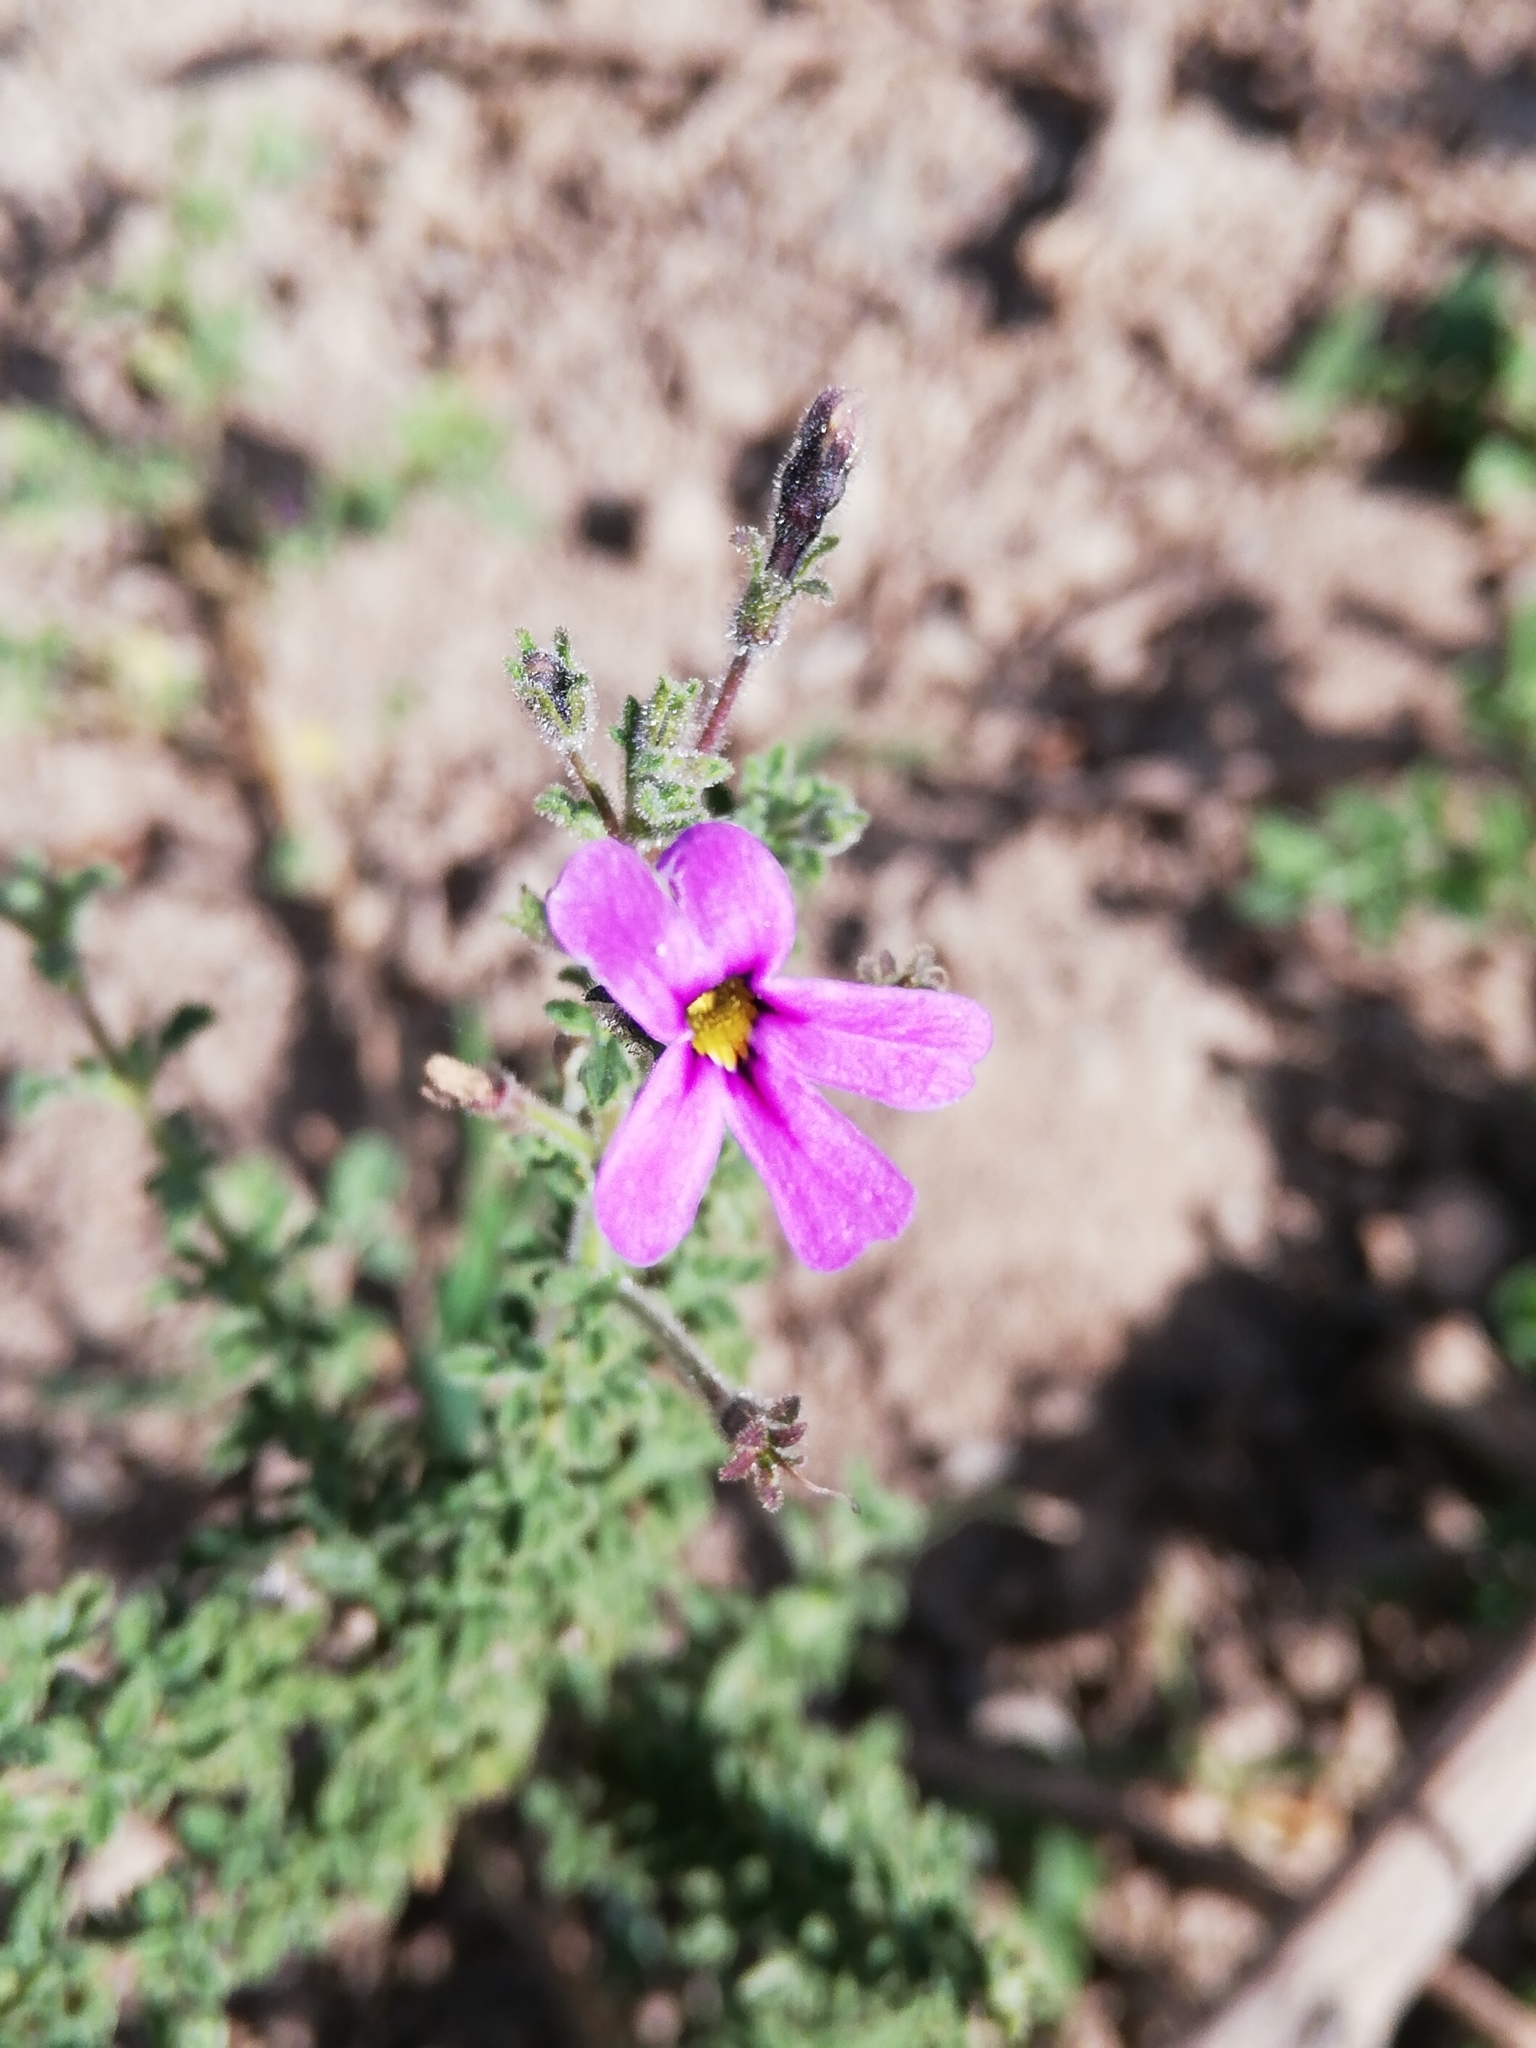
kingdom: Plantae
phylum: Tracheophyta
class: Magnoliopsida
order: Lamiales
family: Scrophulariaceae
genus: Jamesbrittenia
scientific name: Jamesbrittenia pinnatifida
